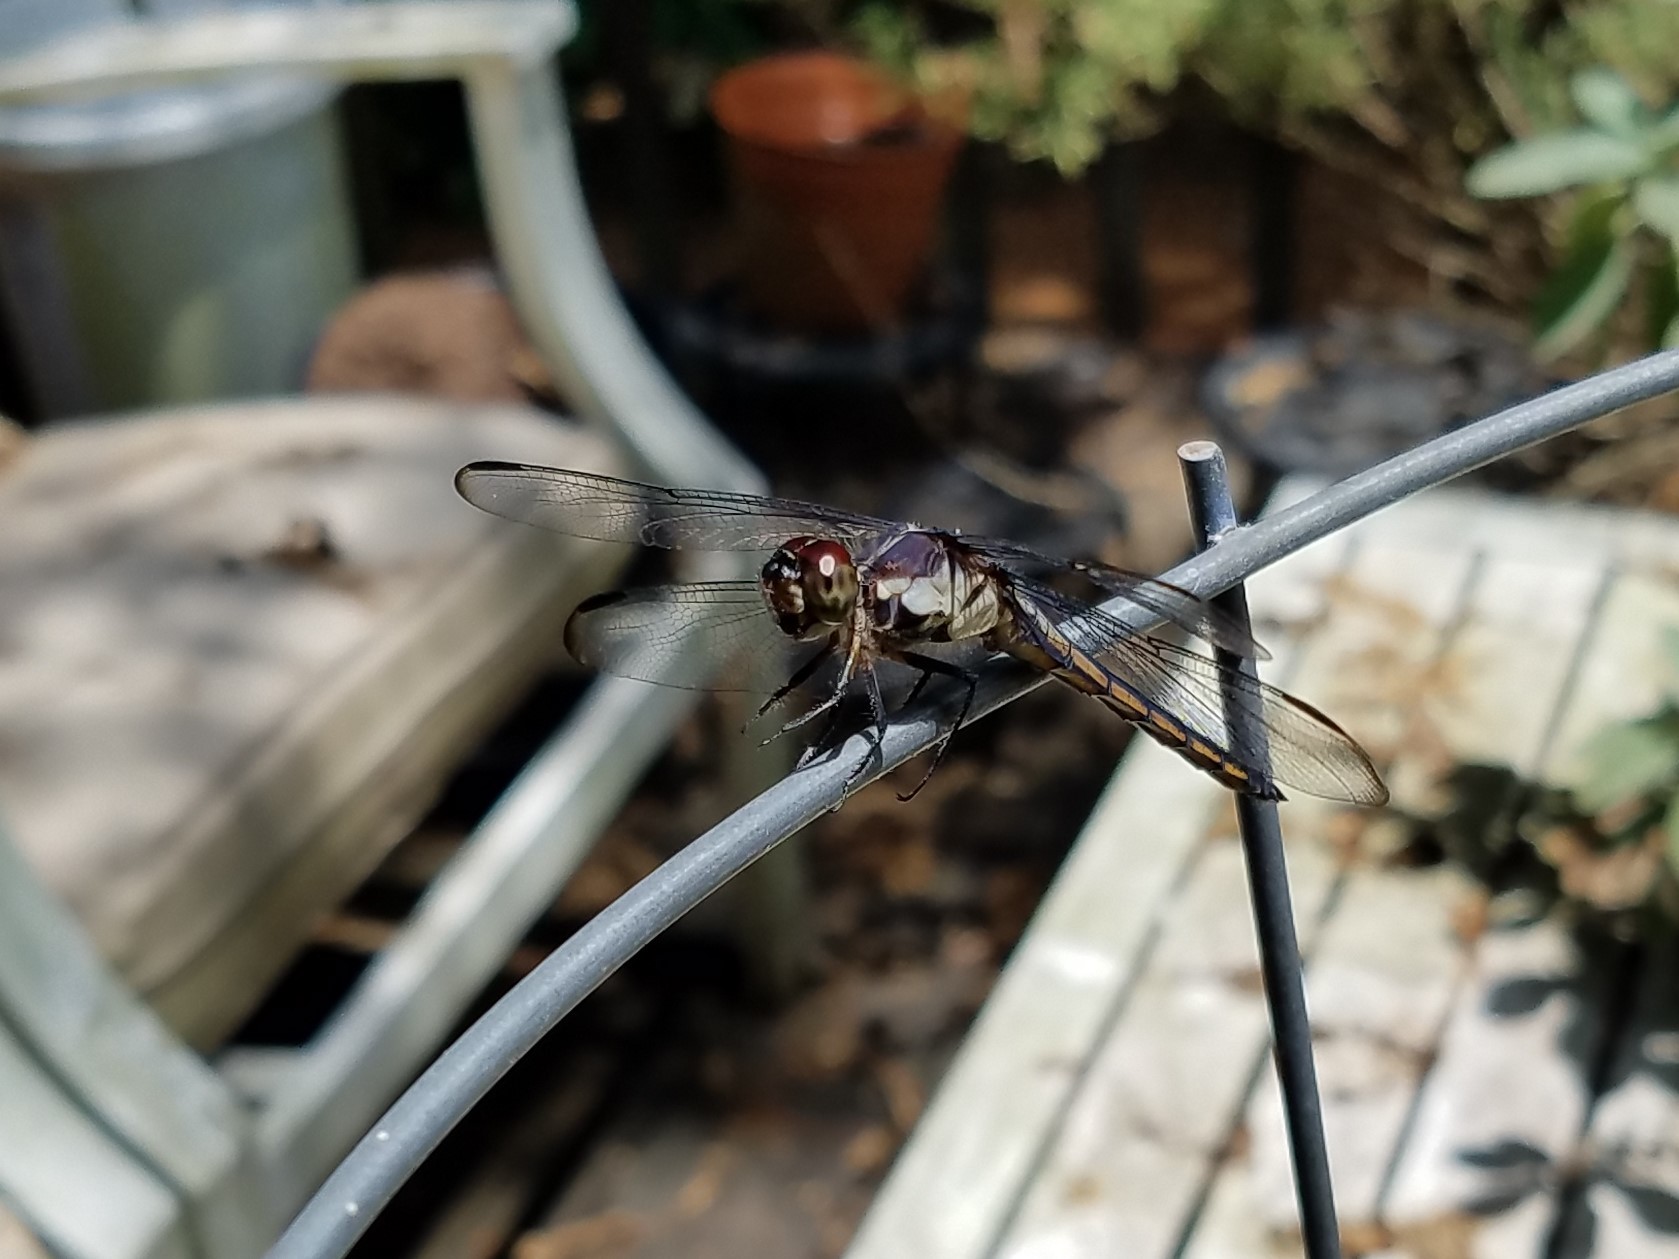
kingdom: Animalia
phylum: Arthropoda
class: Insecta
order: Odonata
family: Libellulidae
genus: Libellula
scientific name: Libellula incesta
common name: Slaty skimmer
